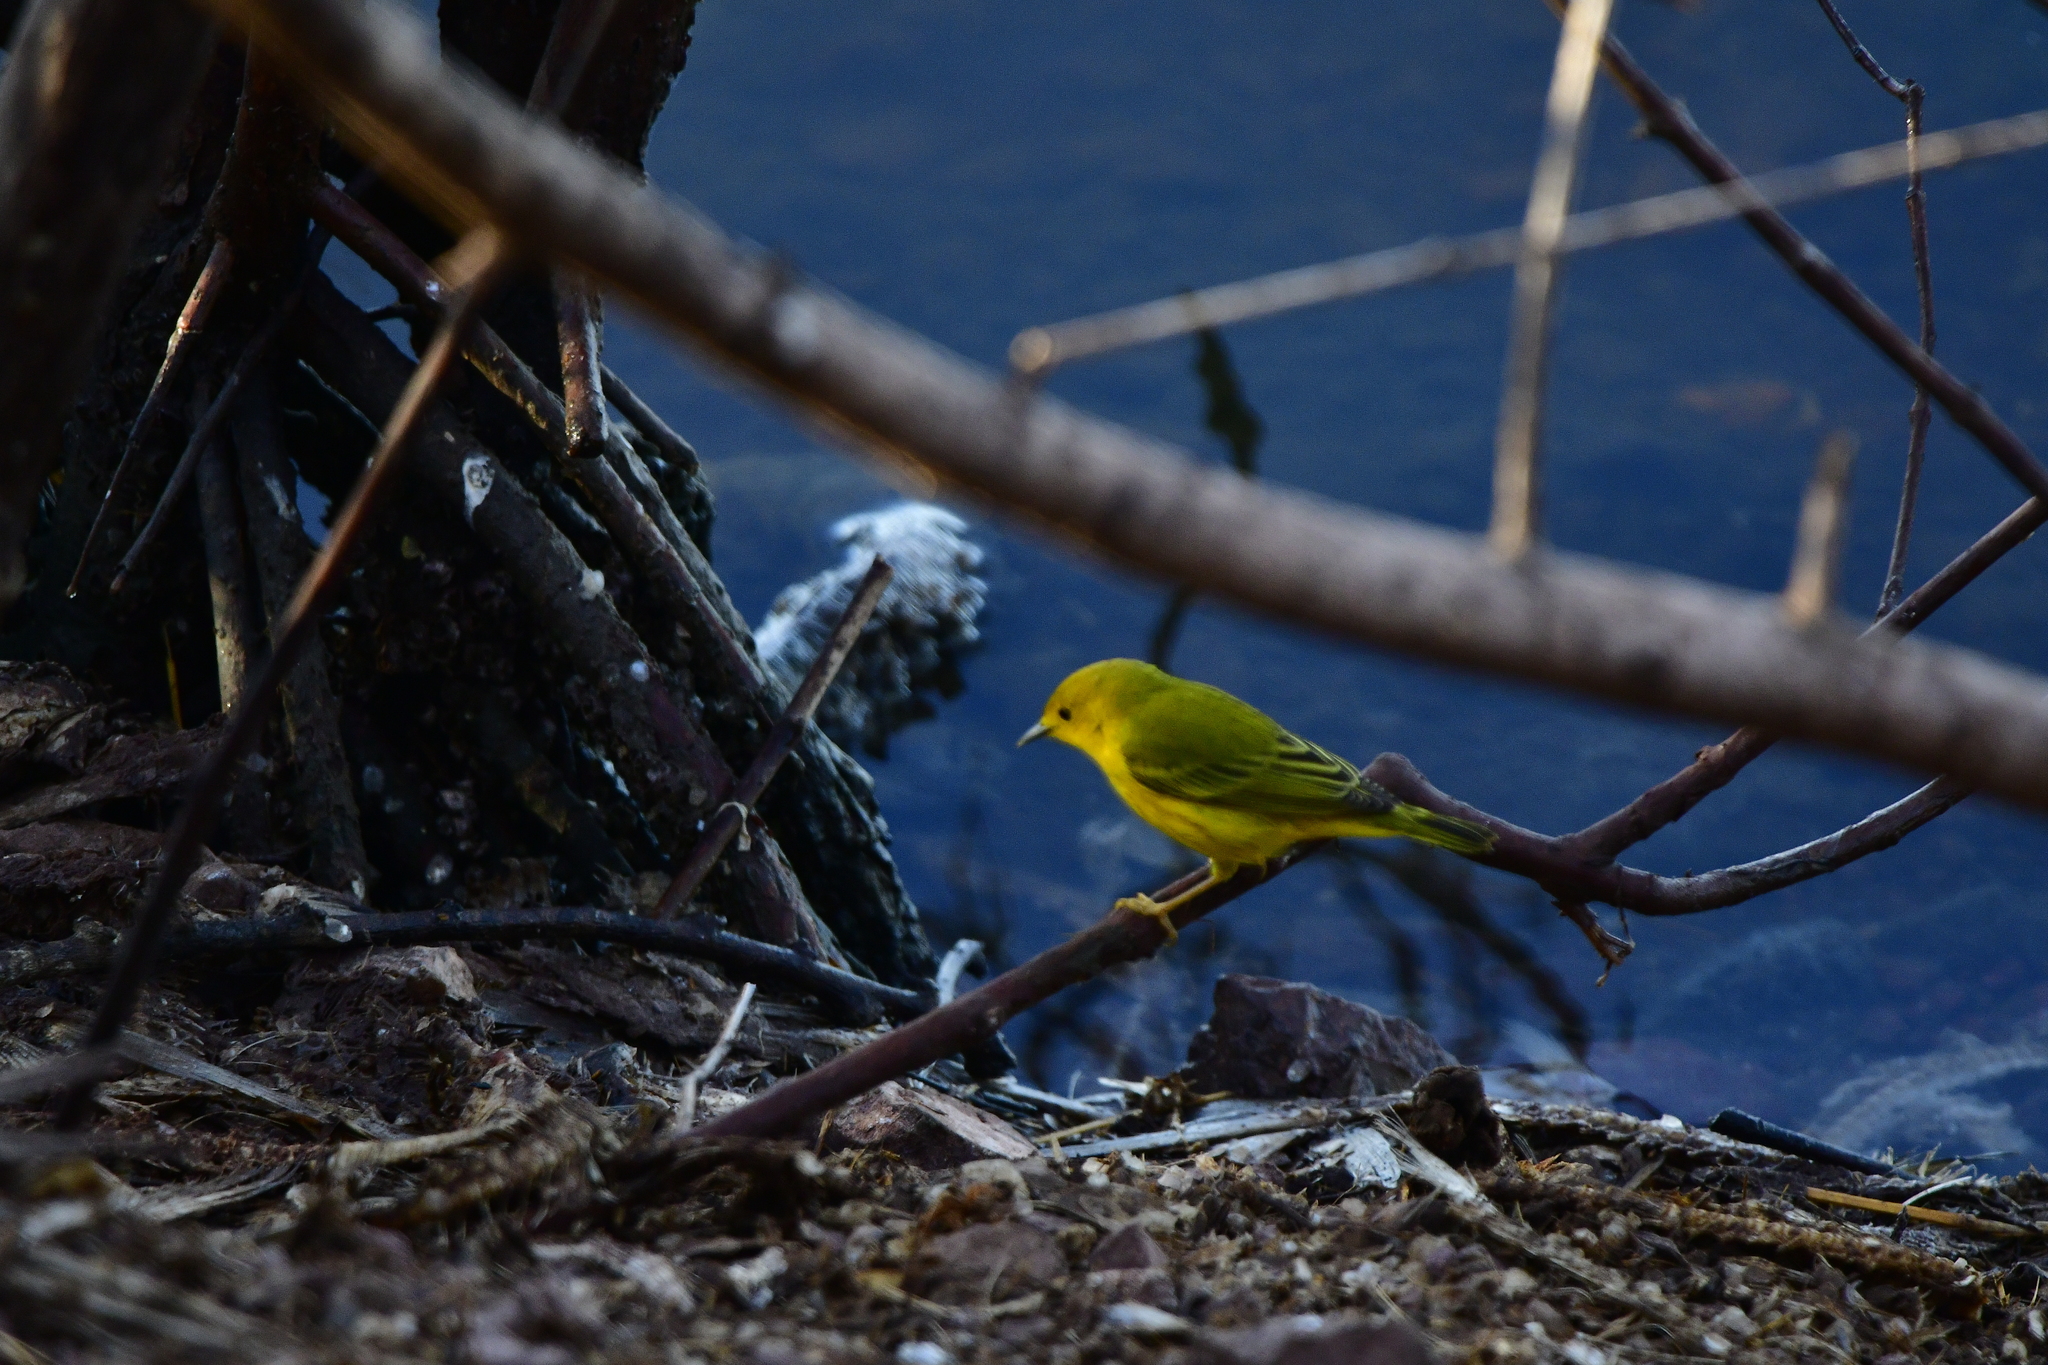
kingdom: Animalia
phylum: Chordata
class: Aves
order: Passeriformes
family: Parulidae
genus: Setophaga
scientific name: Setophaga petechia
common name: Yellow warbler
